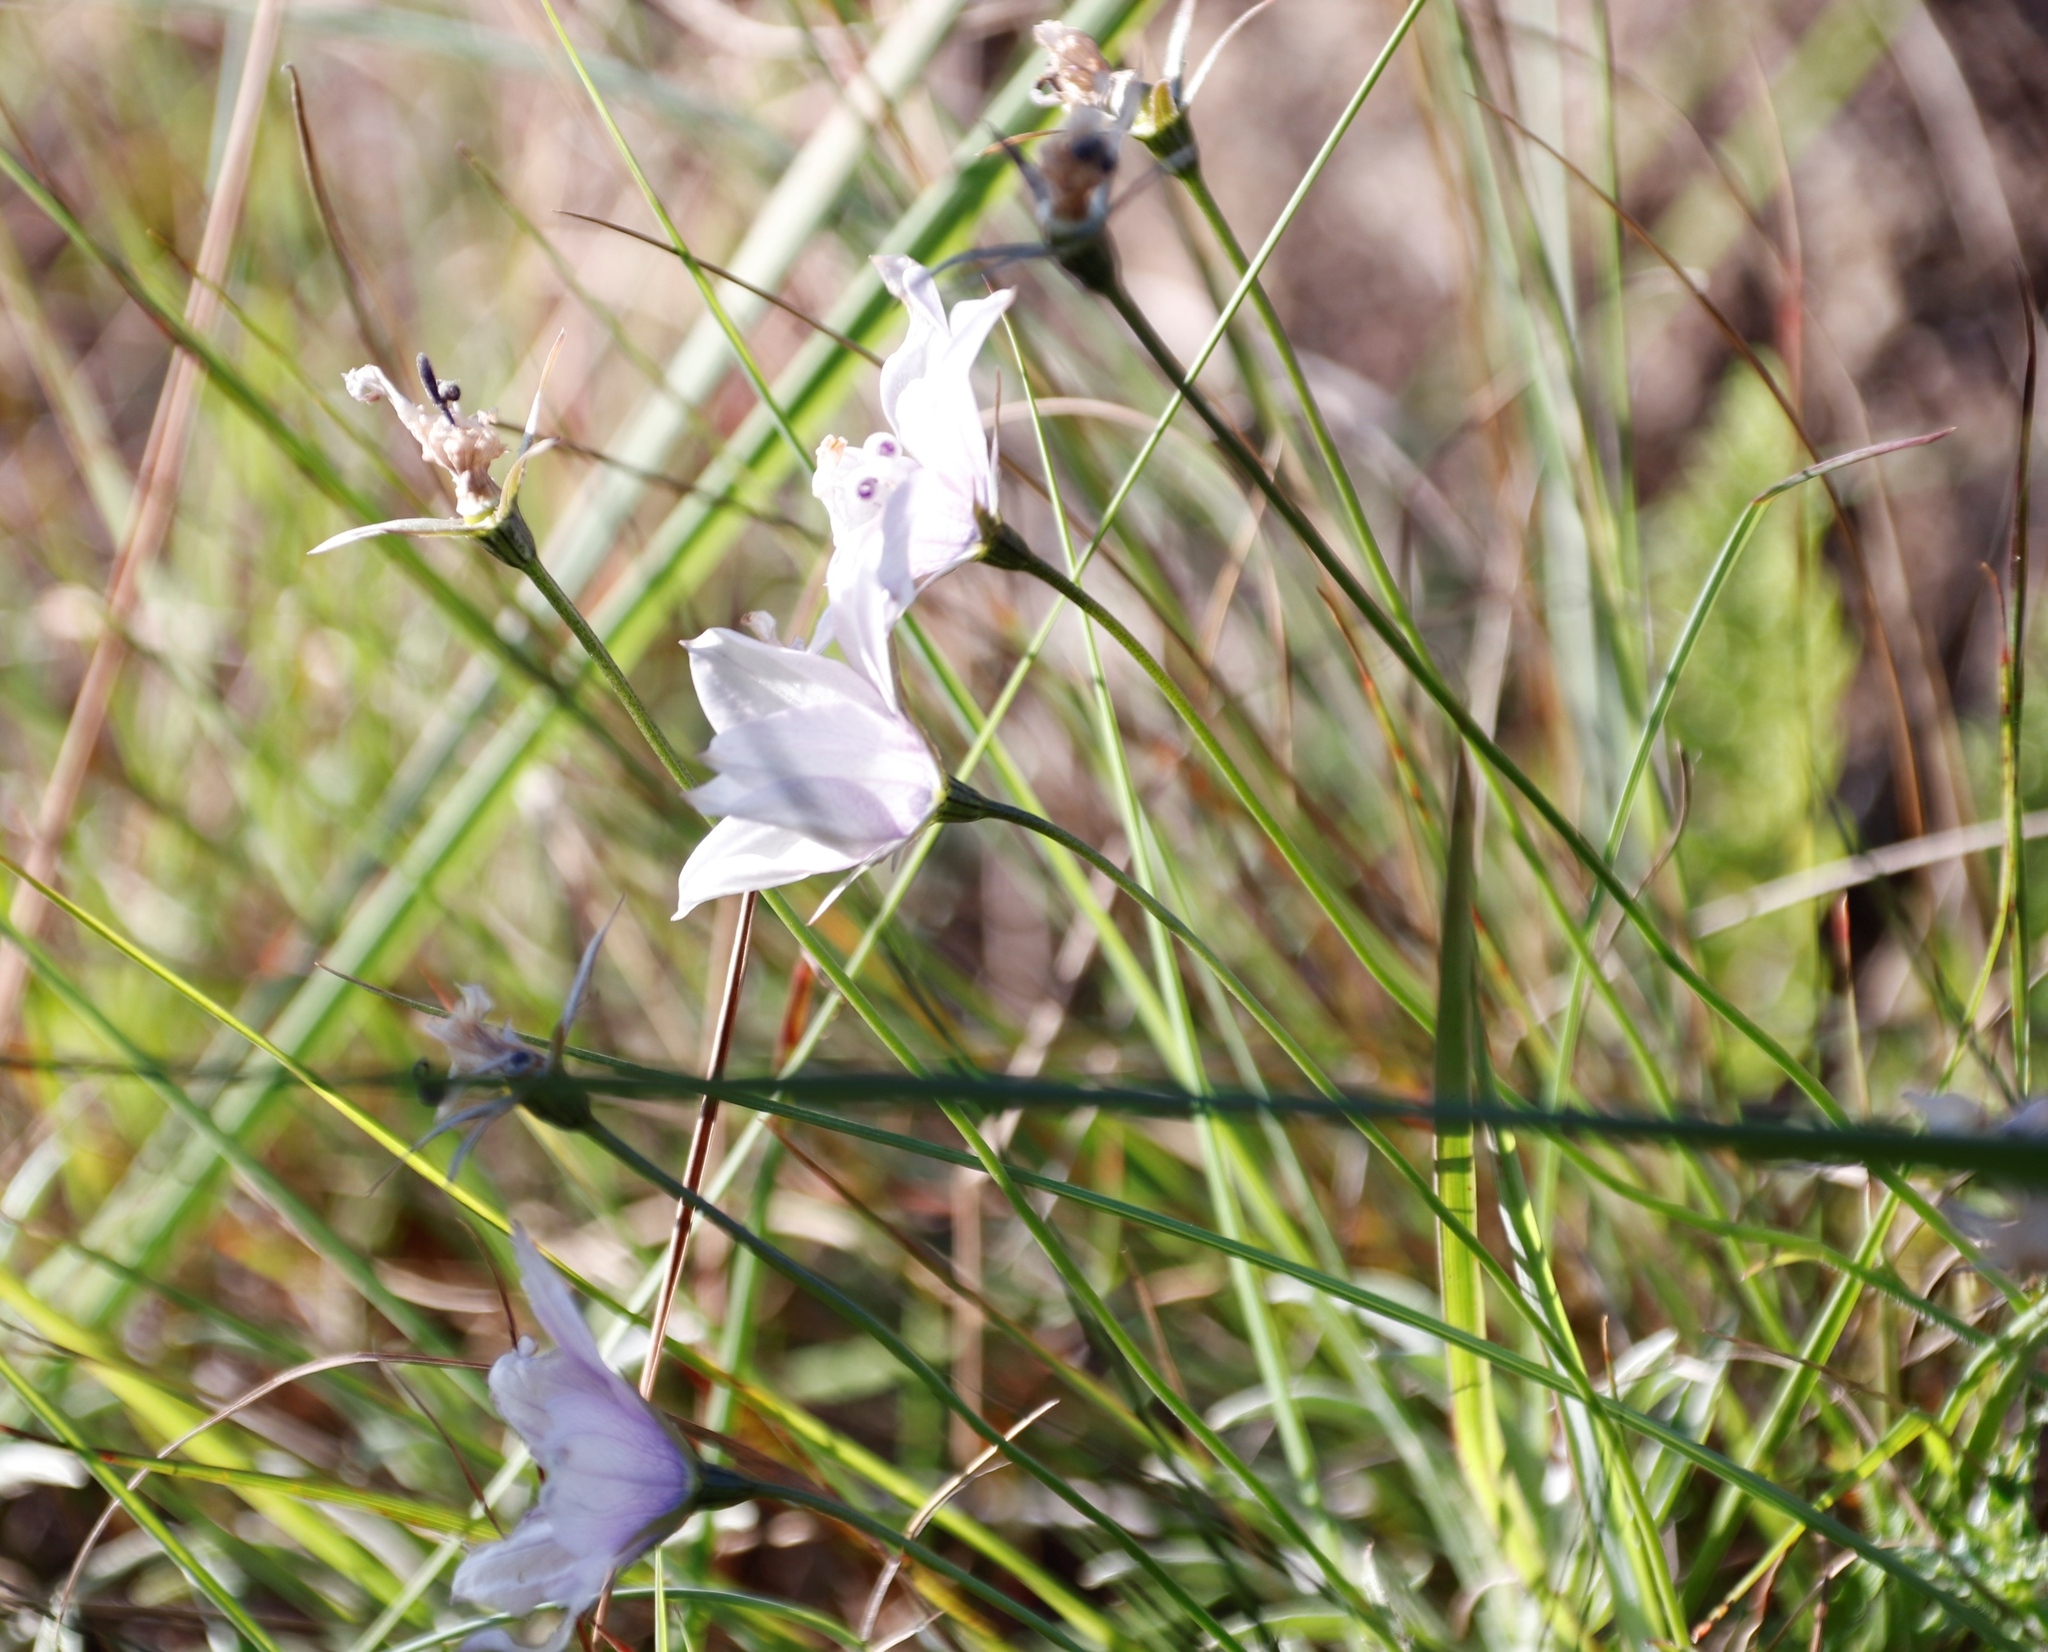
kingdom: Plantae
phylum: Tracheophyta
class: Magnoliopsida
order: Asterales
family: Campanulaceae
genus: Wahlenbergia
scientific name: Wahlenbergia cuspidata
